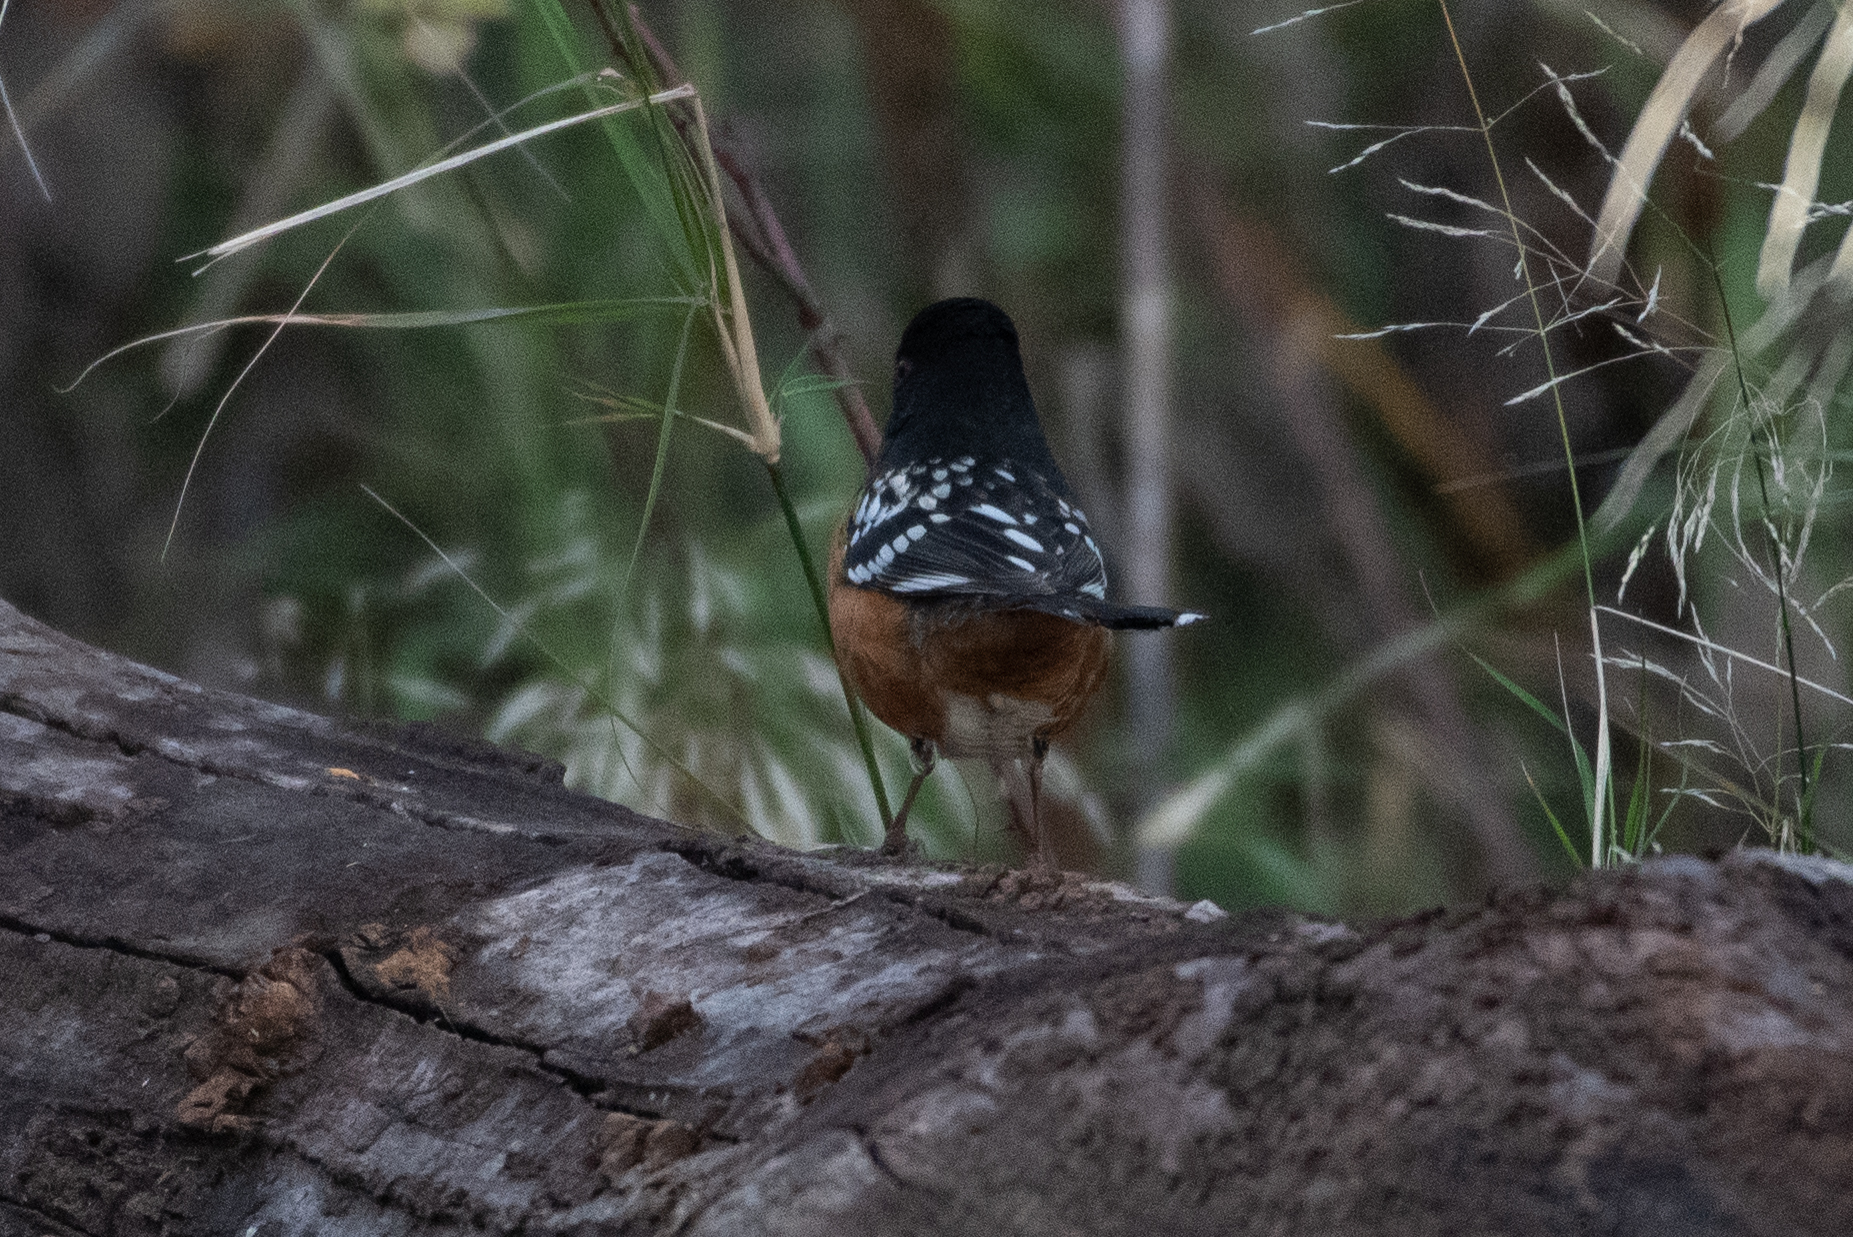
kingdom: Animalia
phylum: Chordata
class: Aves
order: Passeriformes
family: Passerellidae
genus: Pipilo
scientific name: Pipilo maculatus
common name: Spotted towhee
